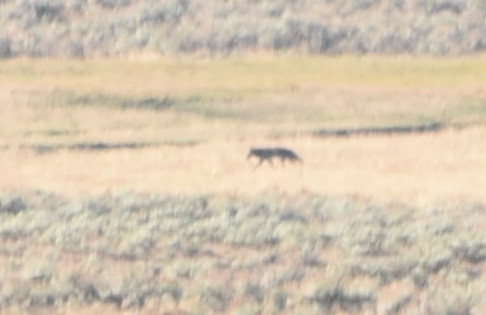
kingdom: Animalia
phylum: Chordata
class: Mammalia
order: Carnivora
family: Canidae
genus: Canis
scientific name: Canis lupus
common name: Gray wolf
